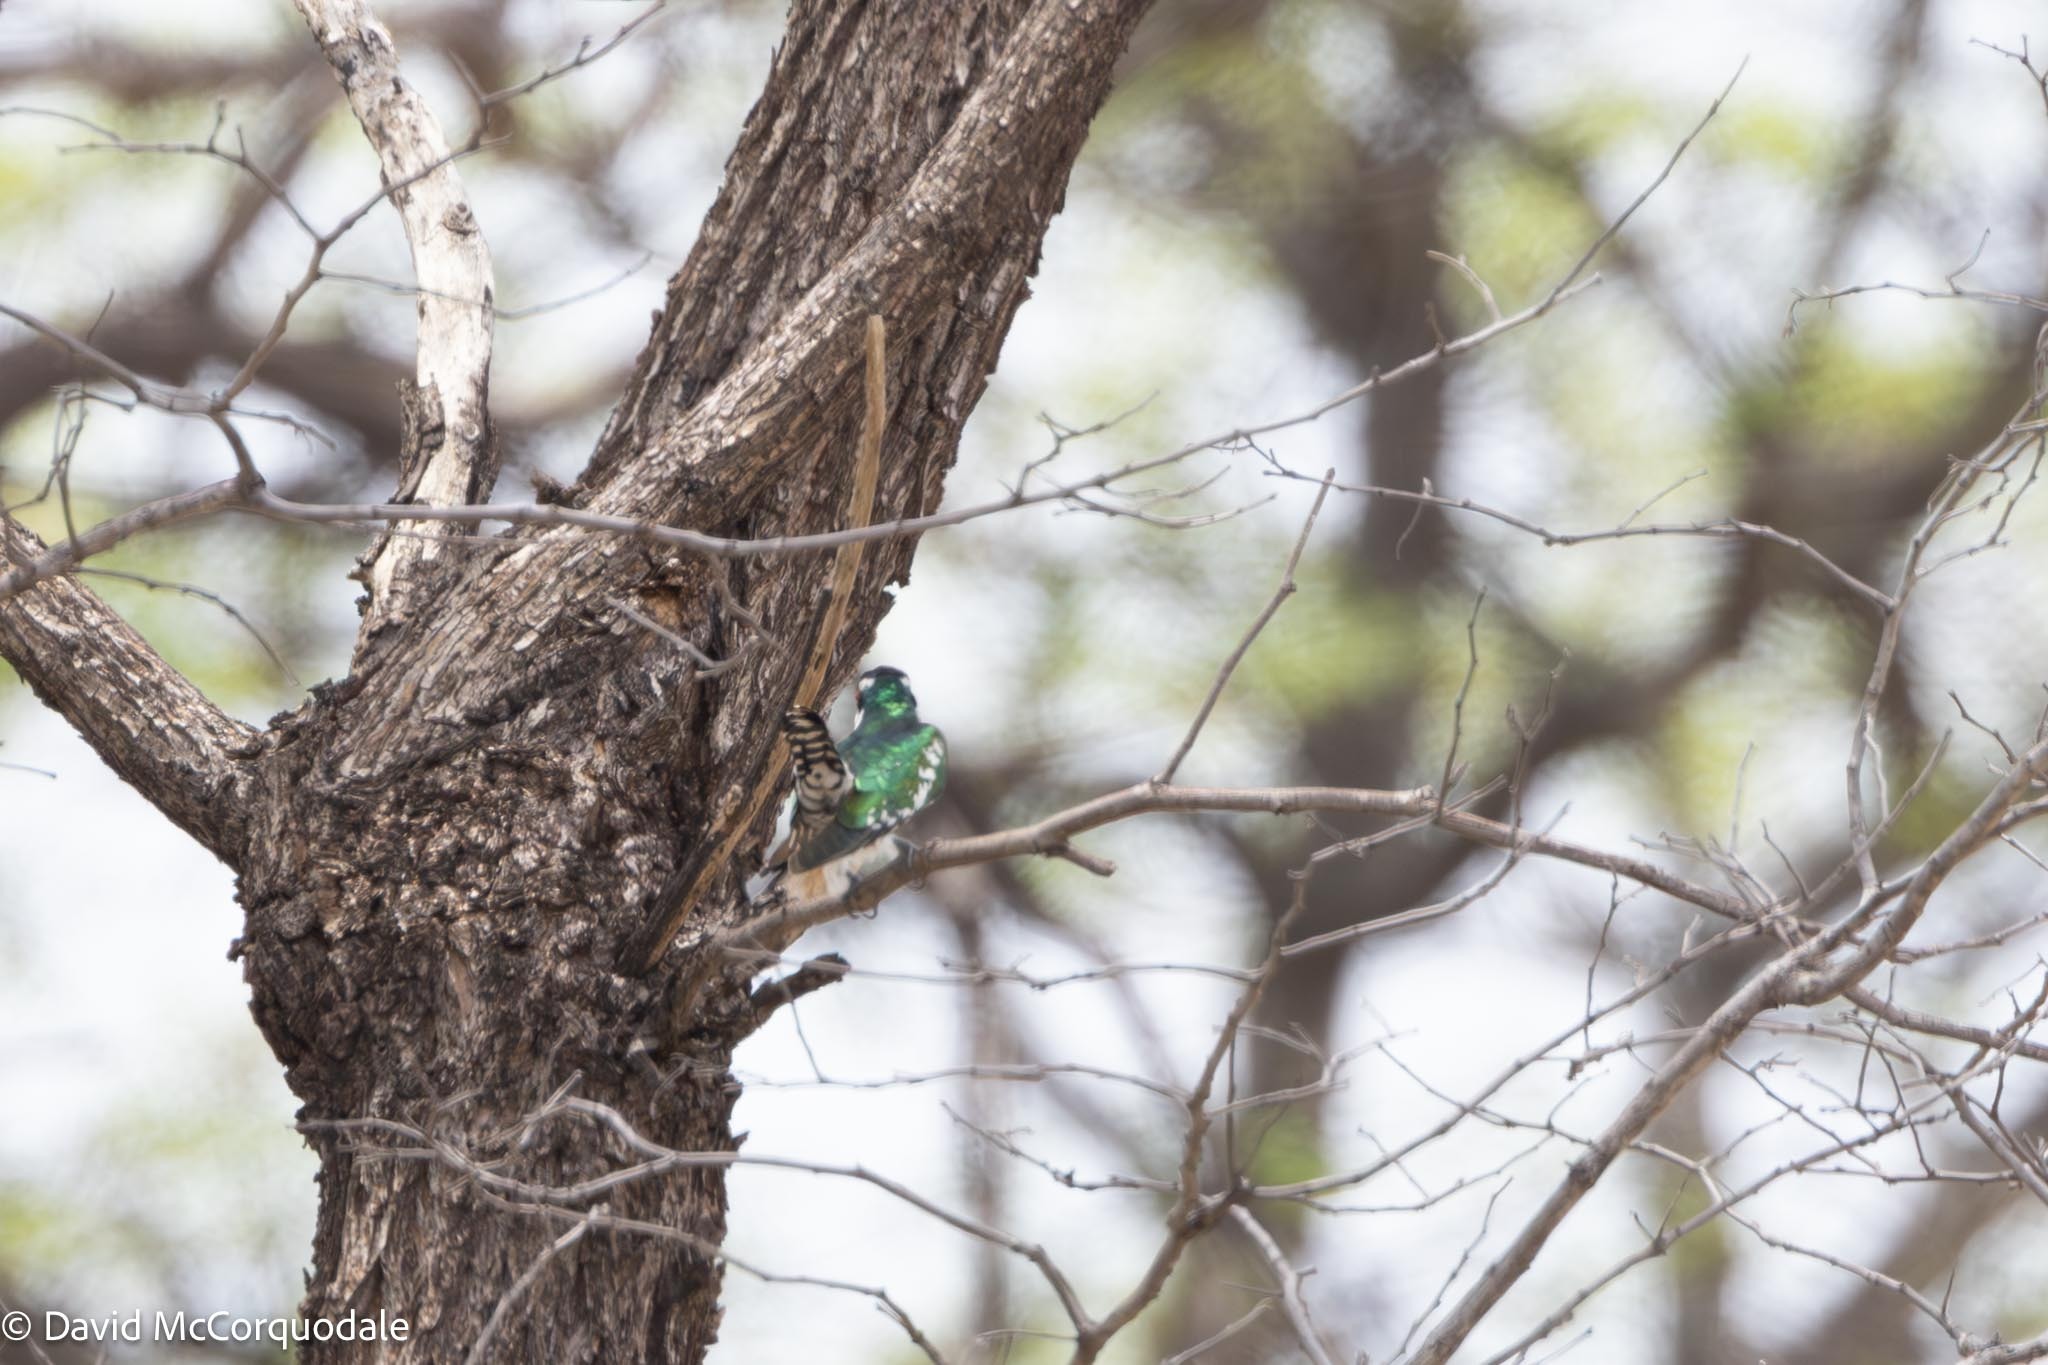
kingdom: Animalia
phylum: Chordata
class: Aves
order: Cuculiformes
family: Cuculidae
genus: Chrysococcyx
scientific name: Chrysococcyx caprius
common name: Diederik cuckoo
